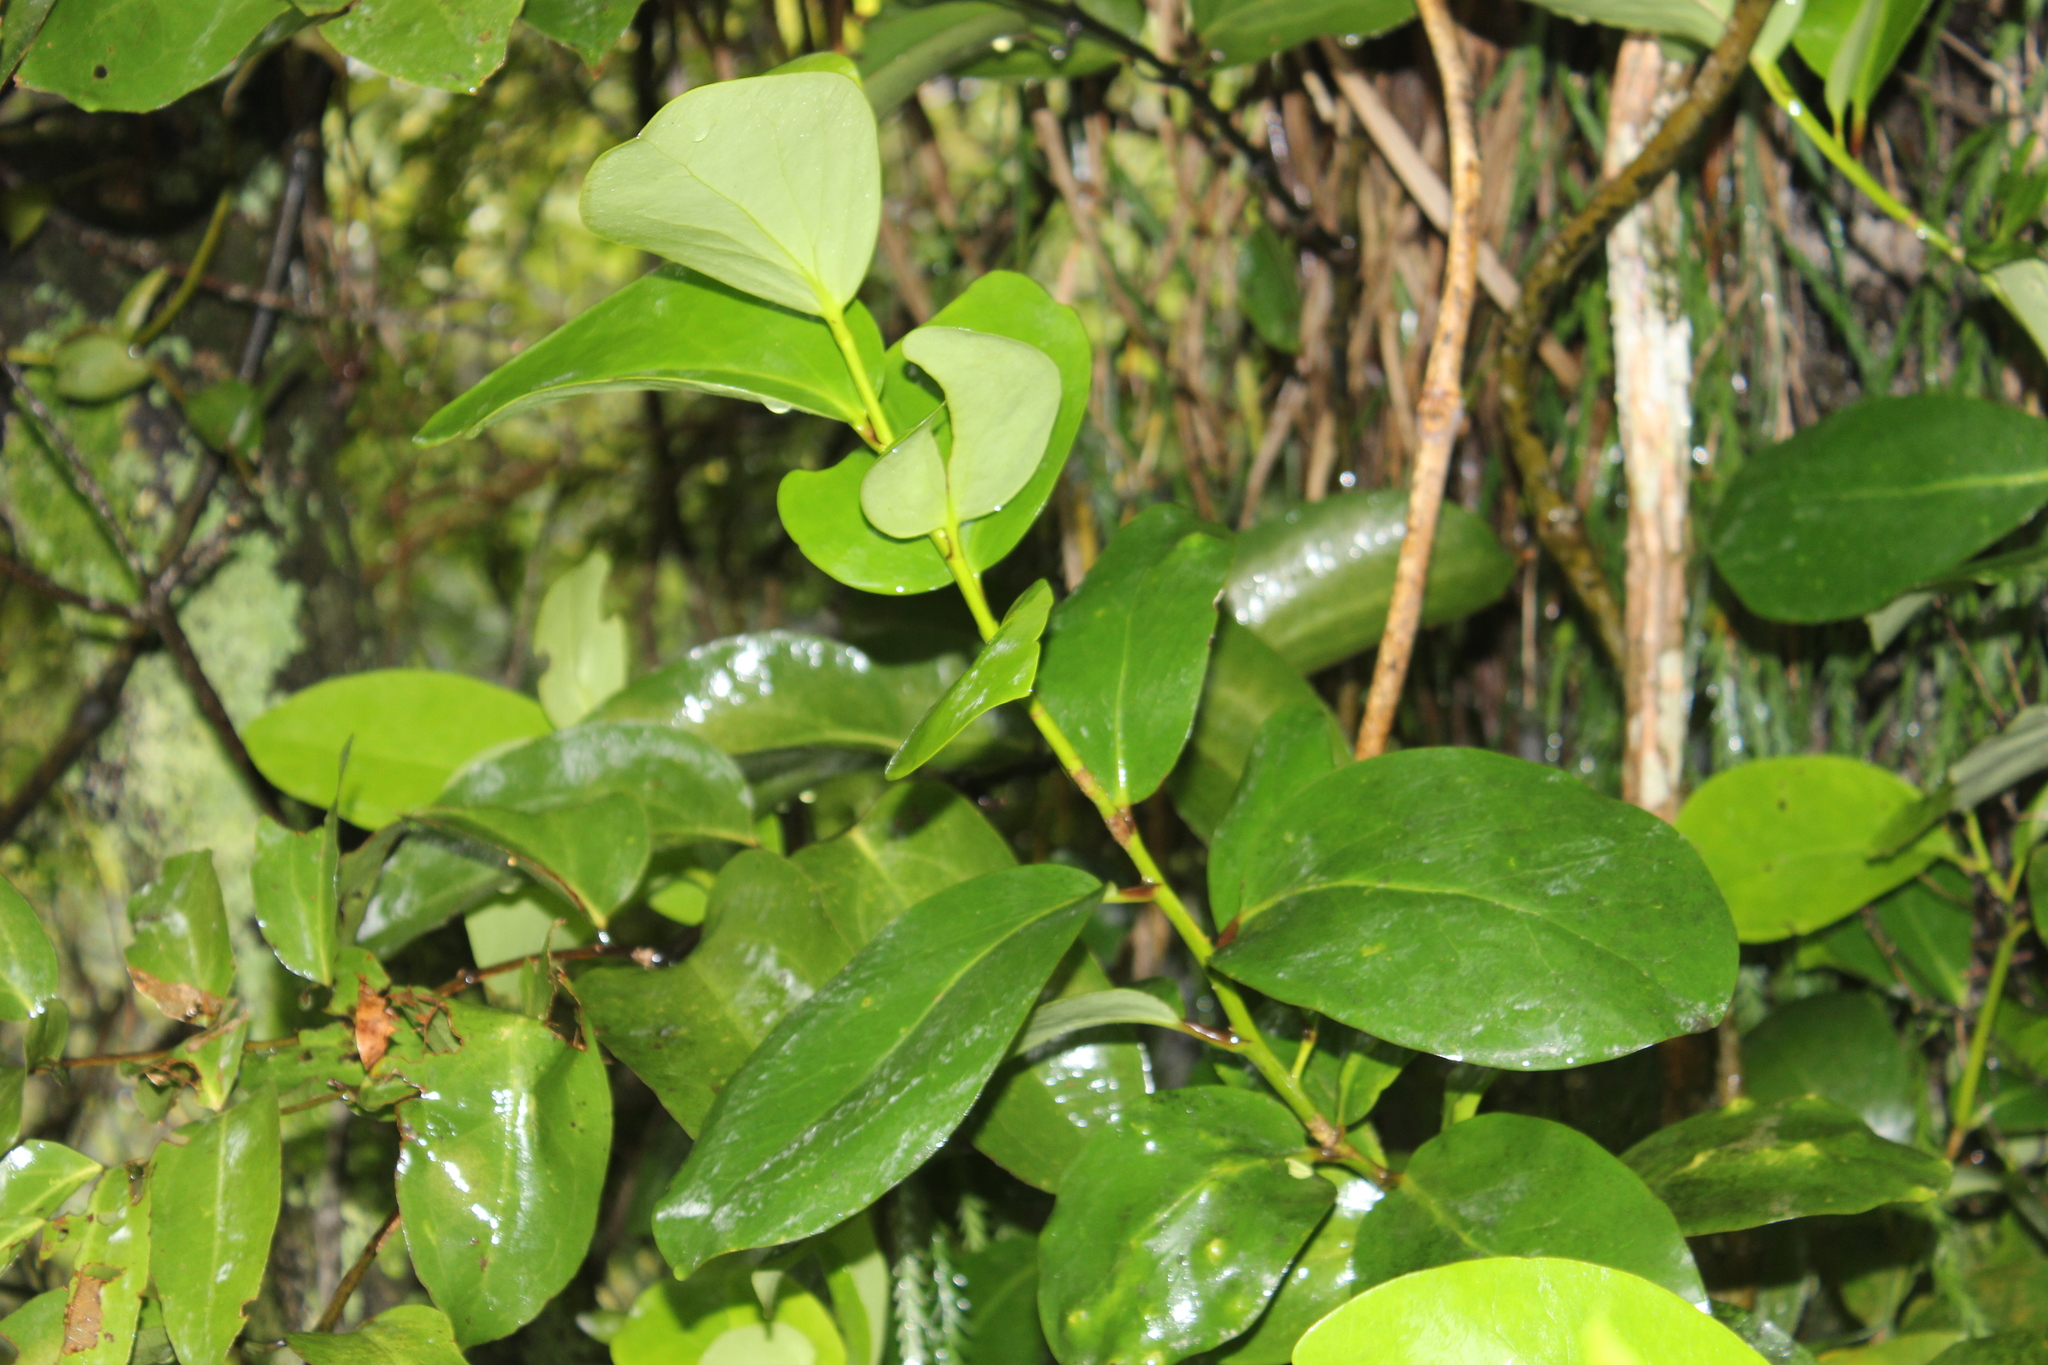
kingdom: Plantae
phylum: Tracheophyta
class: Magnoliopsida
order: Apiales
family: Griseliniaceae
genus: Griselinia
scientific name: Griselinia lucida
